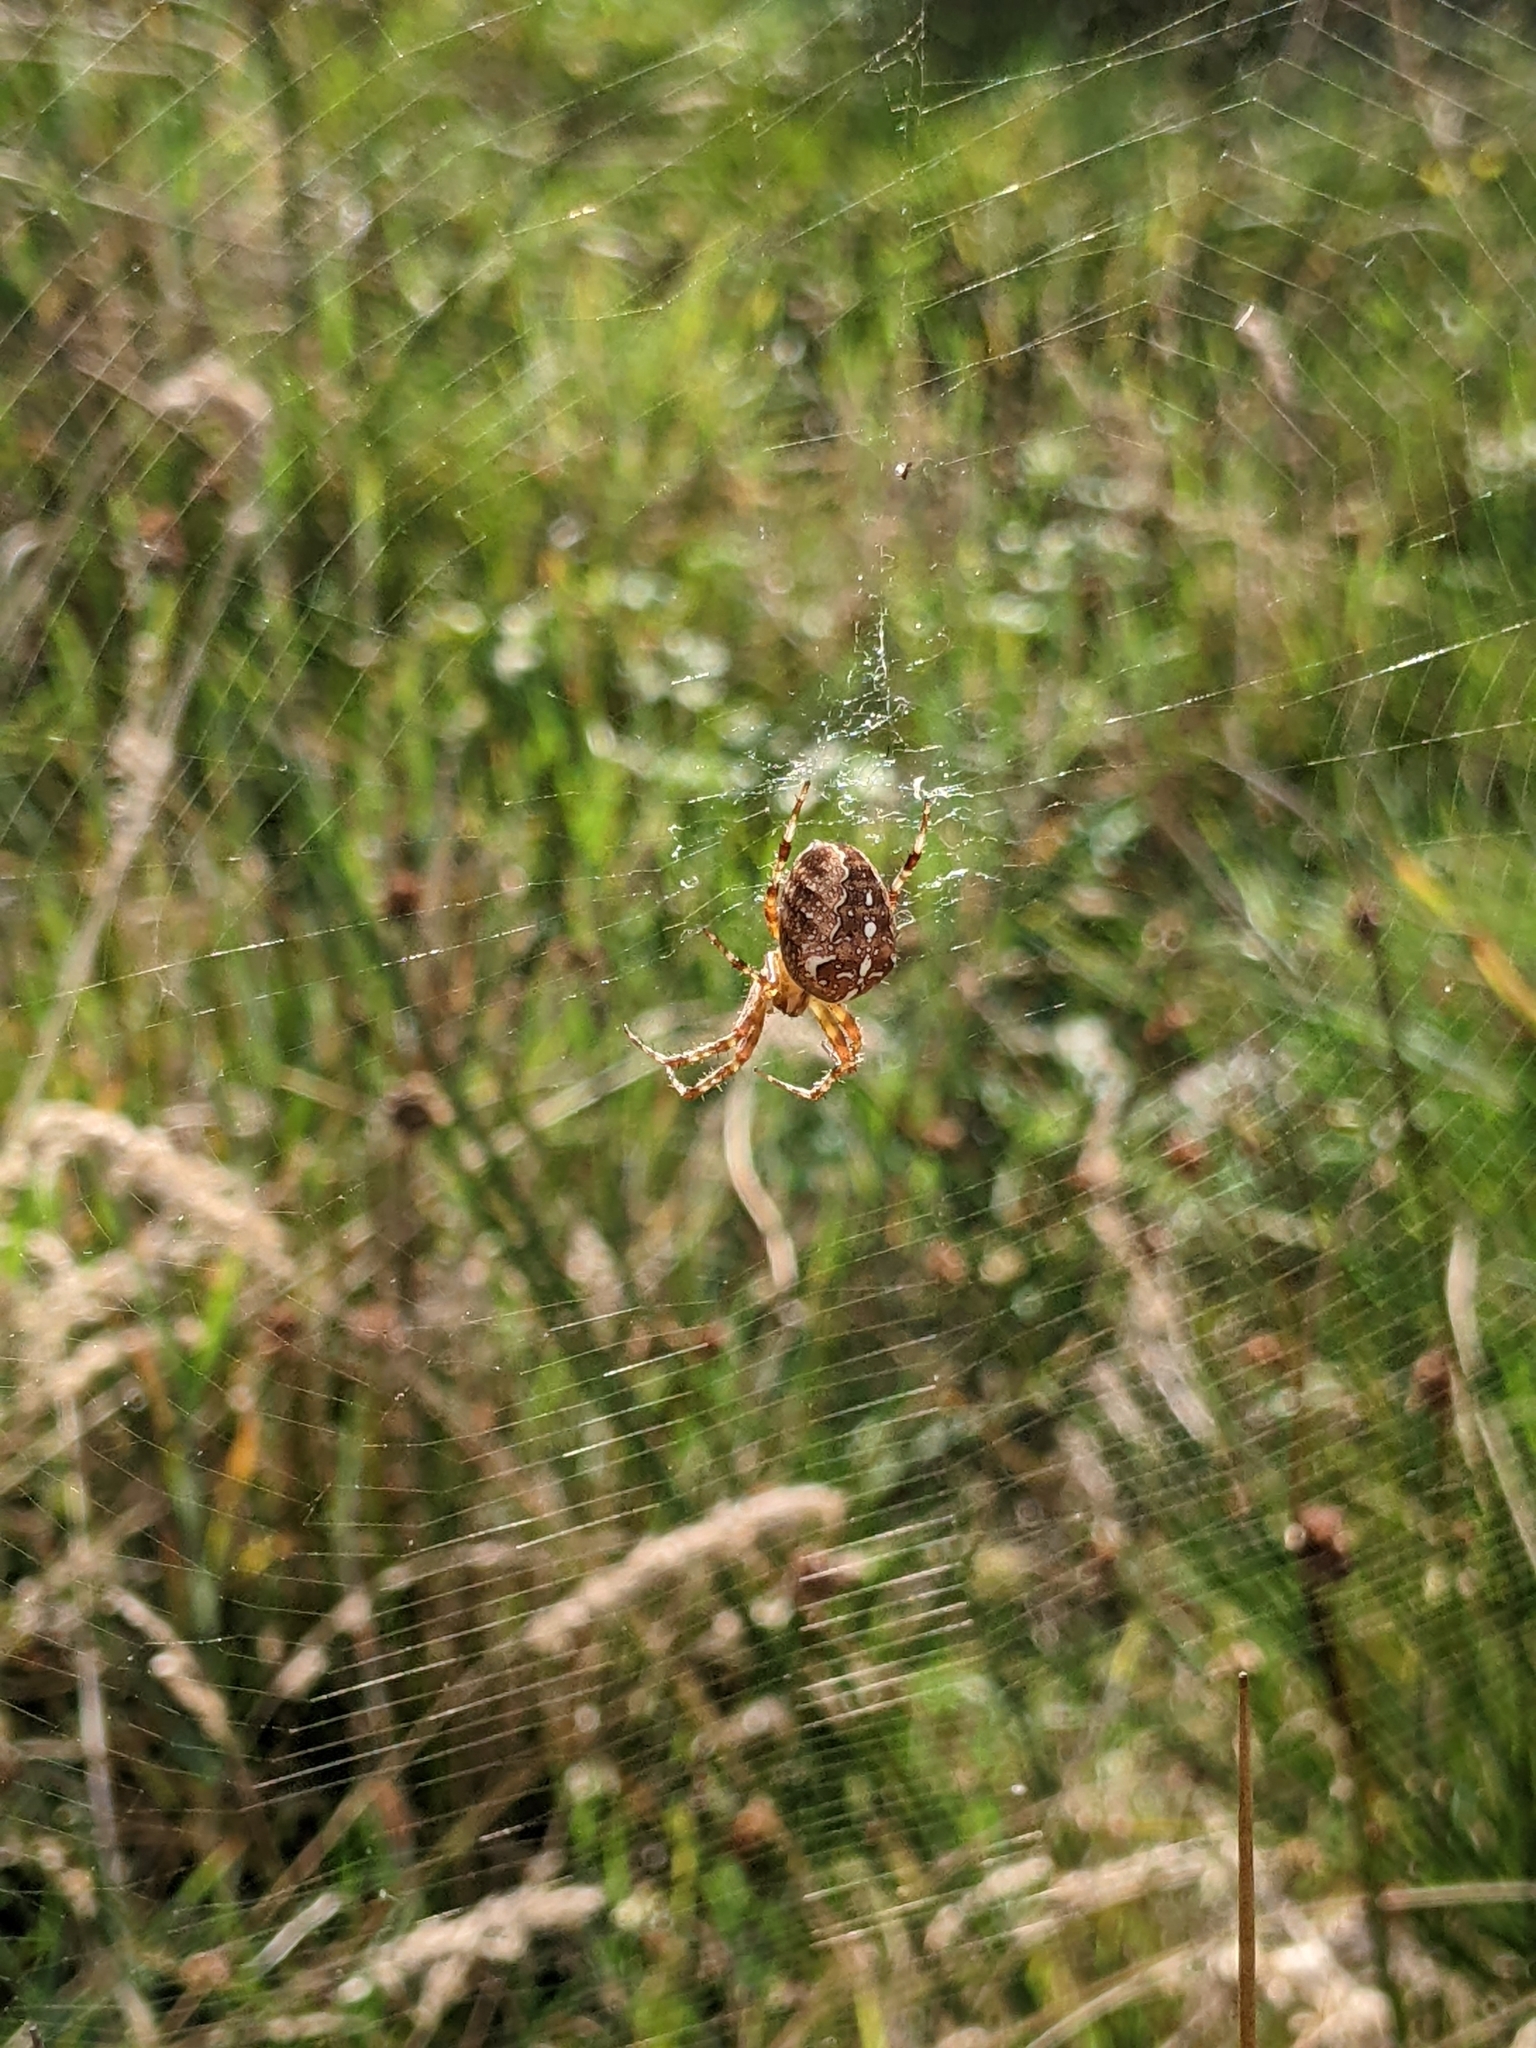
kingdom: Animalia
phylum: Arthropoda
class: Arachnida
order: Araneae
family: Araneidae
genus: Araneus
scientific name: Araneus diadematus
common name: Cross orbweaver
